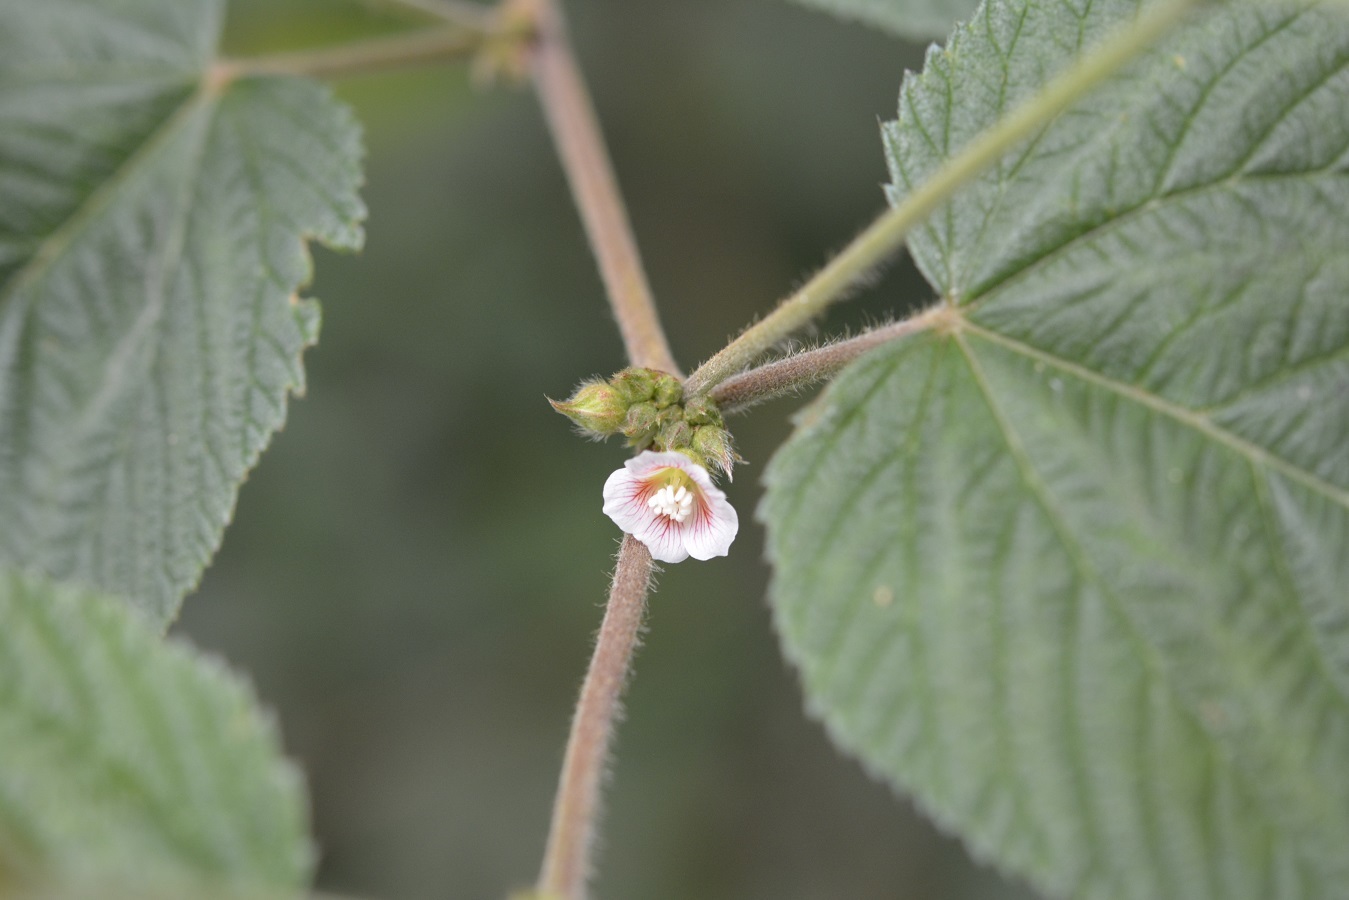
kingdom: Plantae
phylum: Tracheophyta
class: Magnoliopsida
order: Malvales
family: Malvaceae
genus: Melochia
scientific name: Melochia nodiflora
